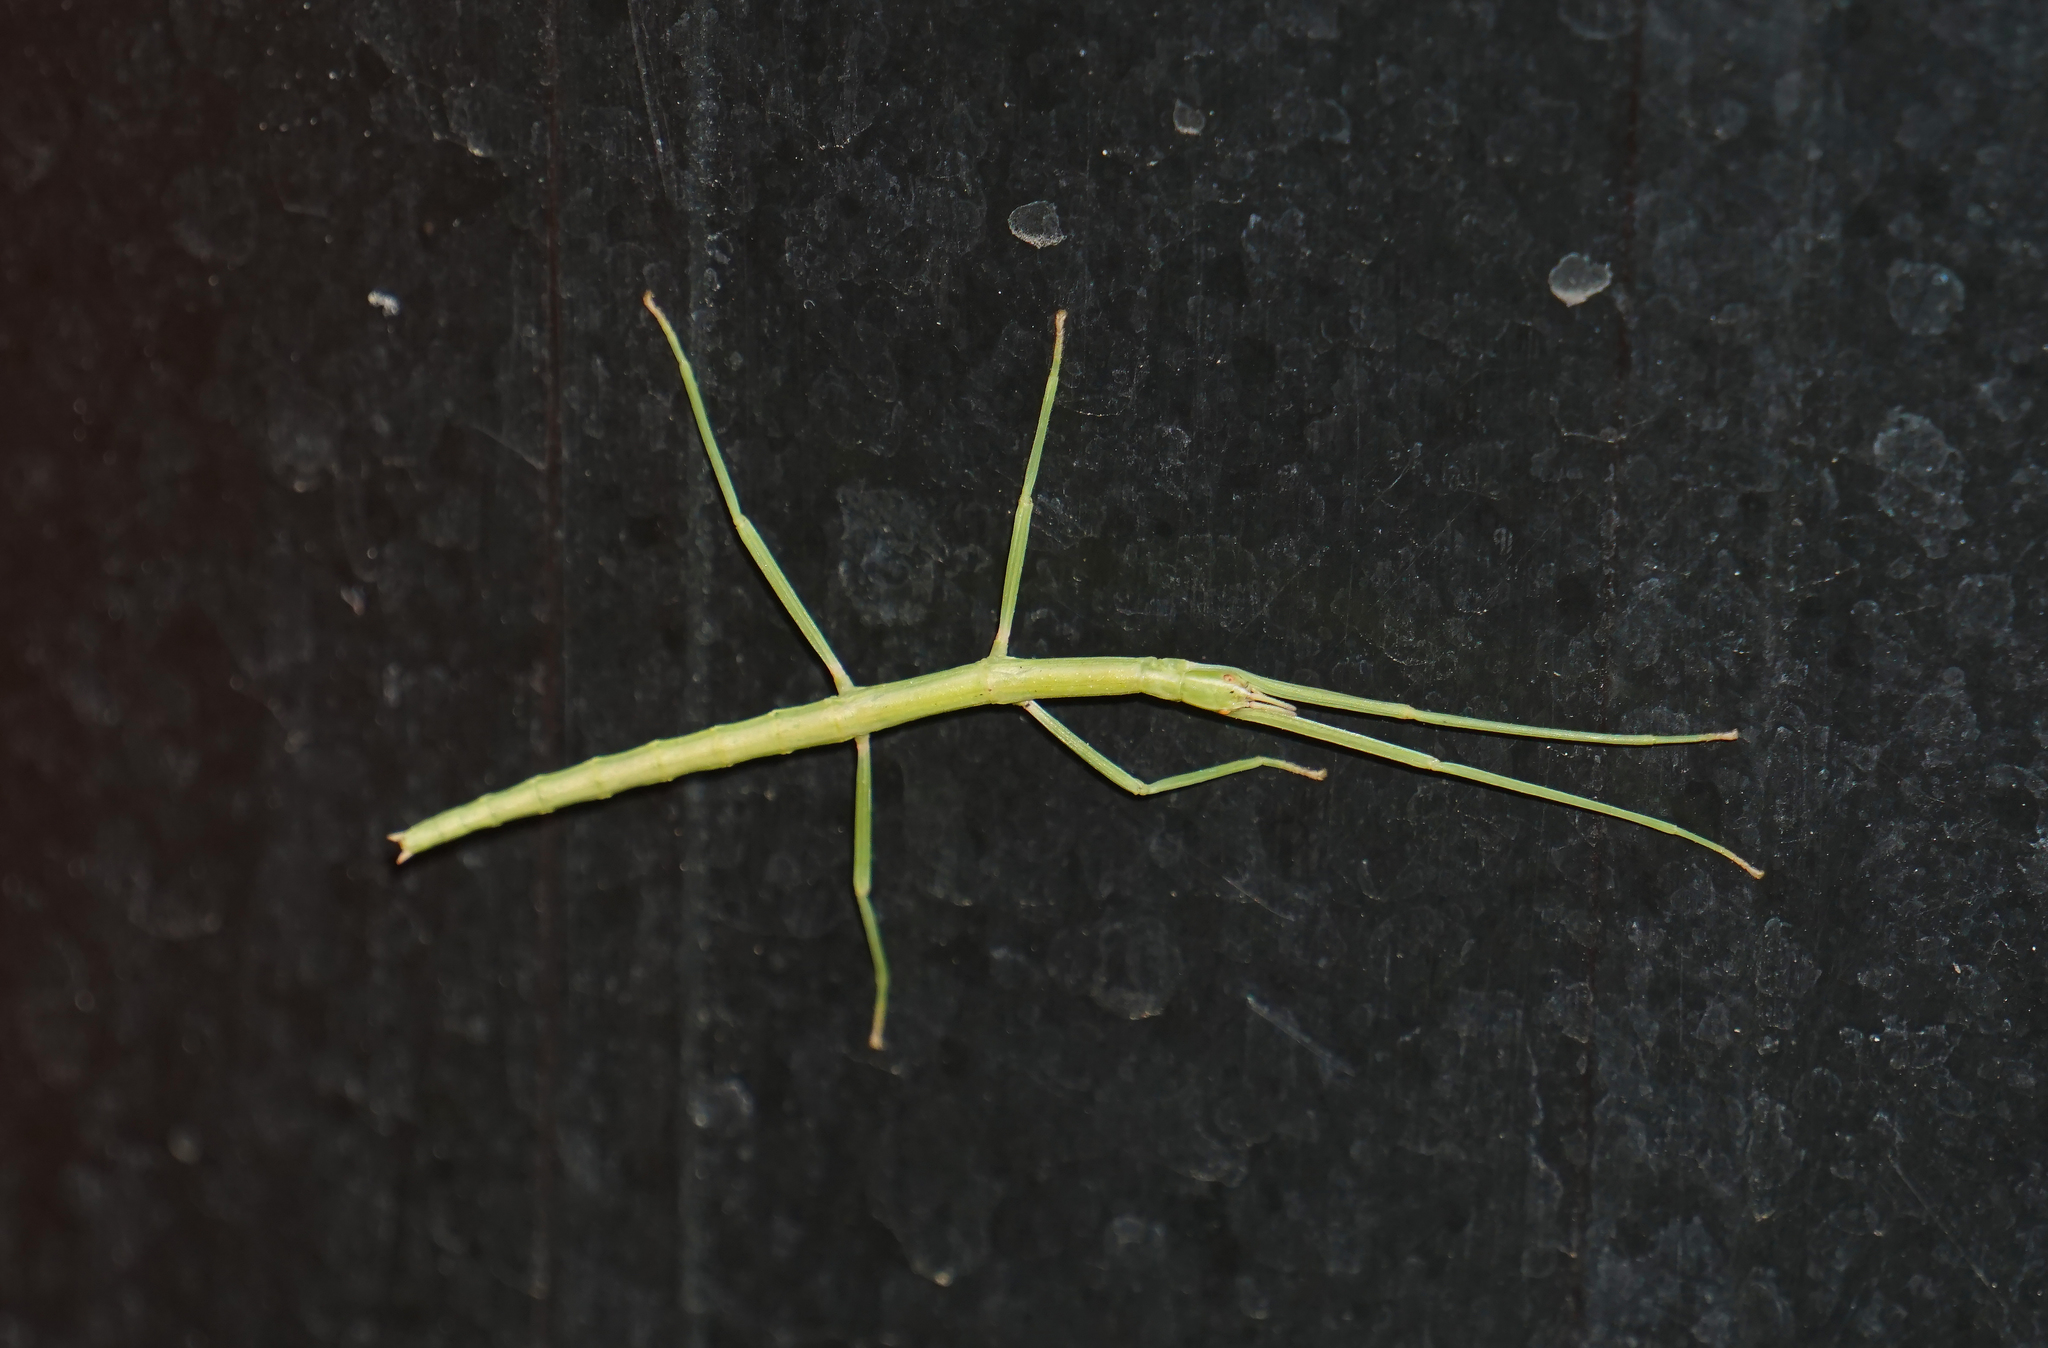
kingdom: Animalia
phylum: Arthropoda
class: Insecta
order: Phasmida
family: Bacillidae
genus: Bacillus
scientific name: Bacillus rossius
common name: Corsican stick-insect
